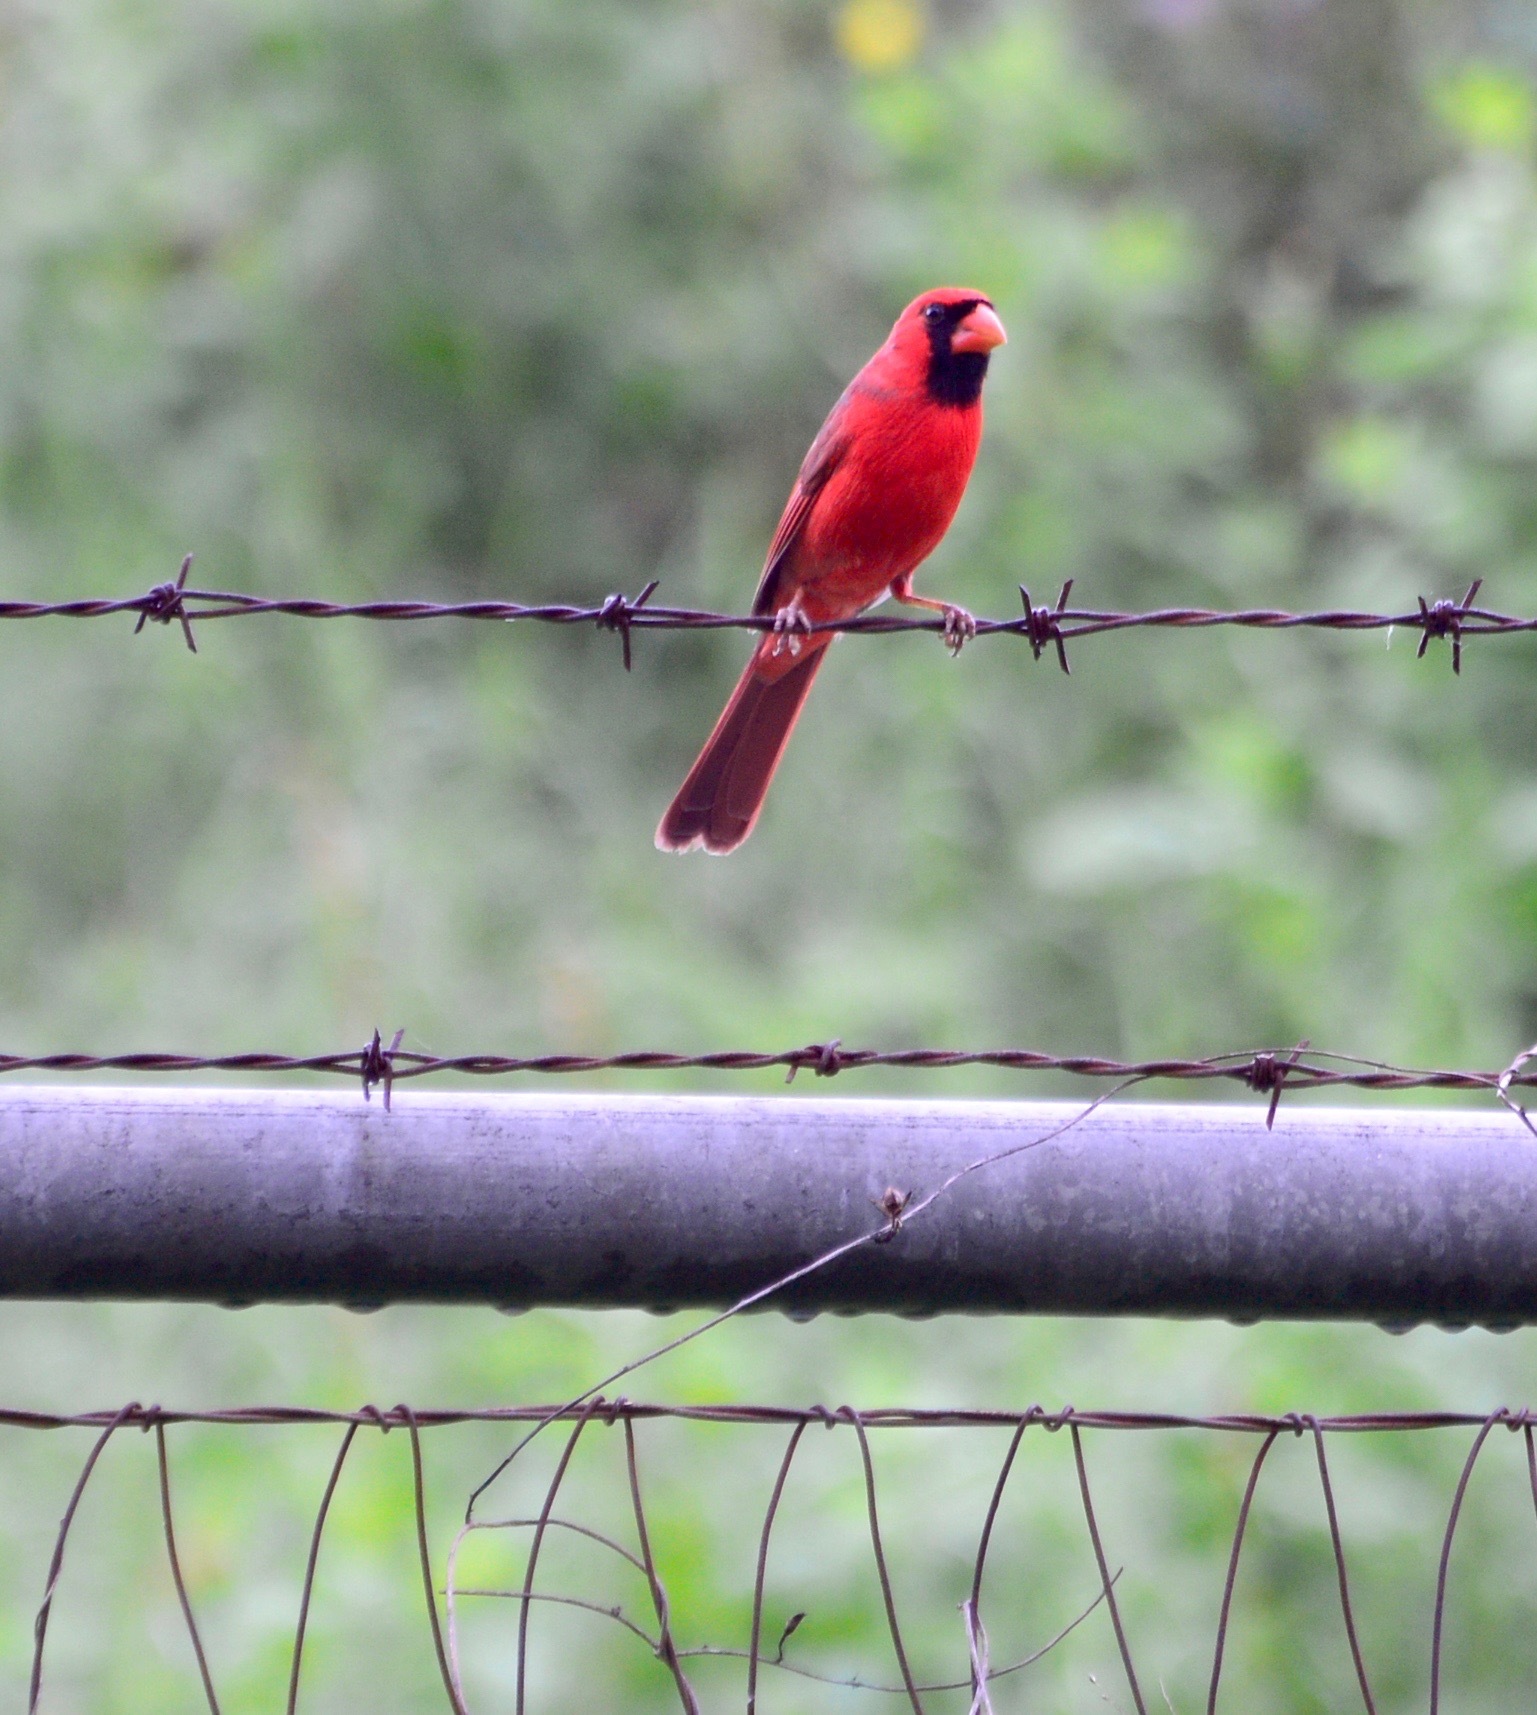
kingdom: Animalia
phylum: Chordata
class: Aves
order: Passeriformes
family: Cardinalidae
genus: Cardinalis
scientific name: Cardinalis cardinalis
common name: Northern cardinal
